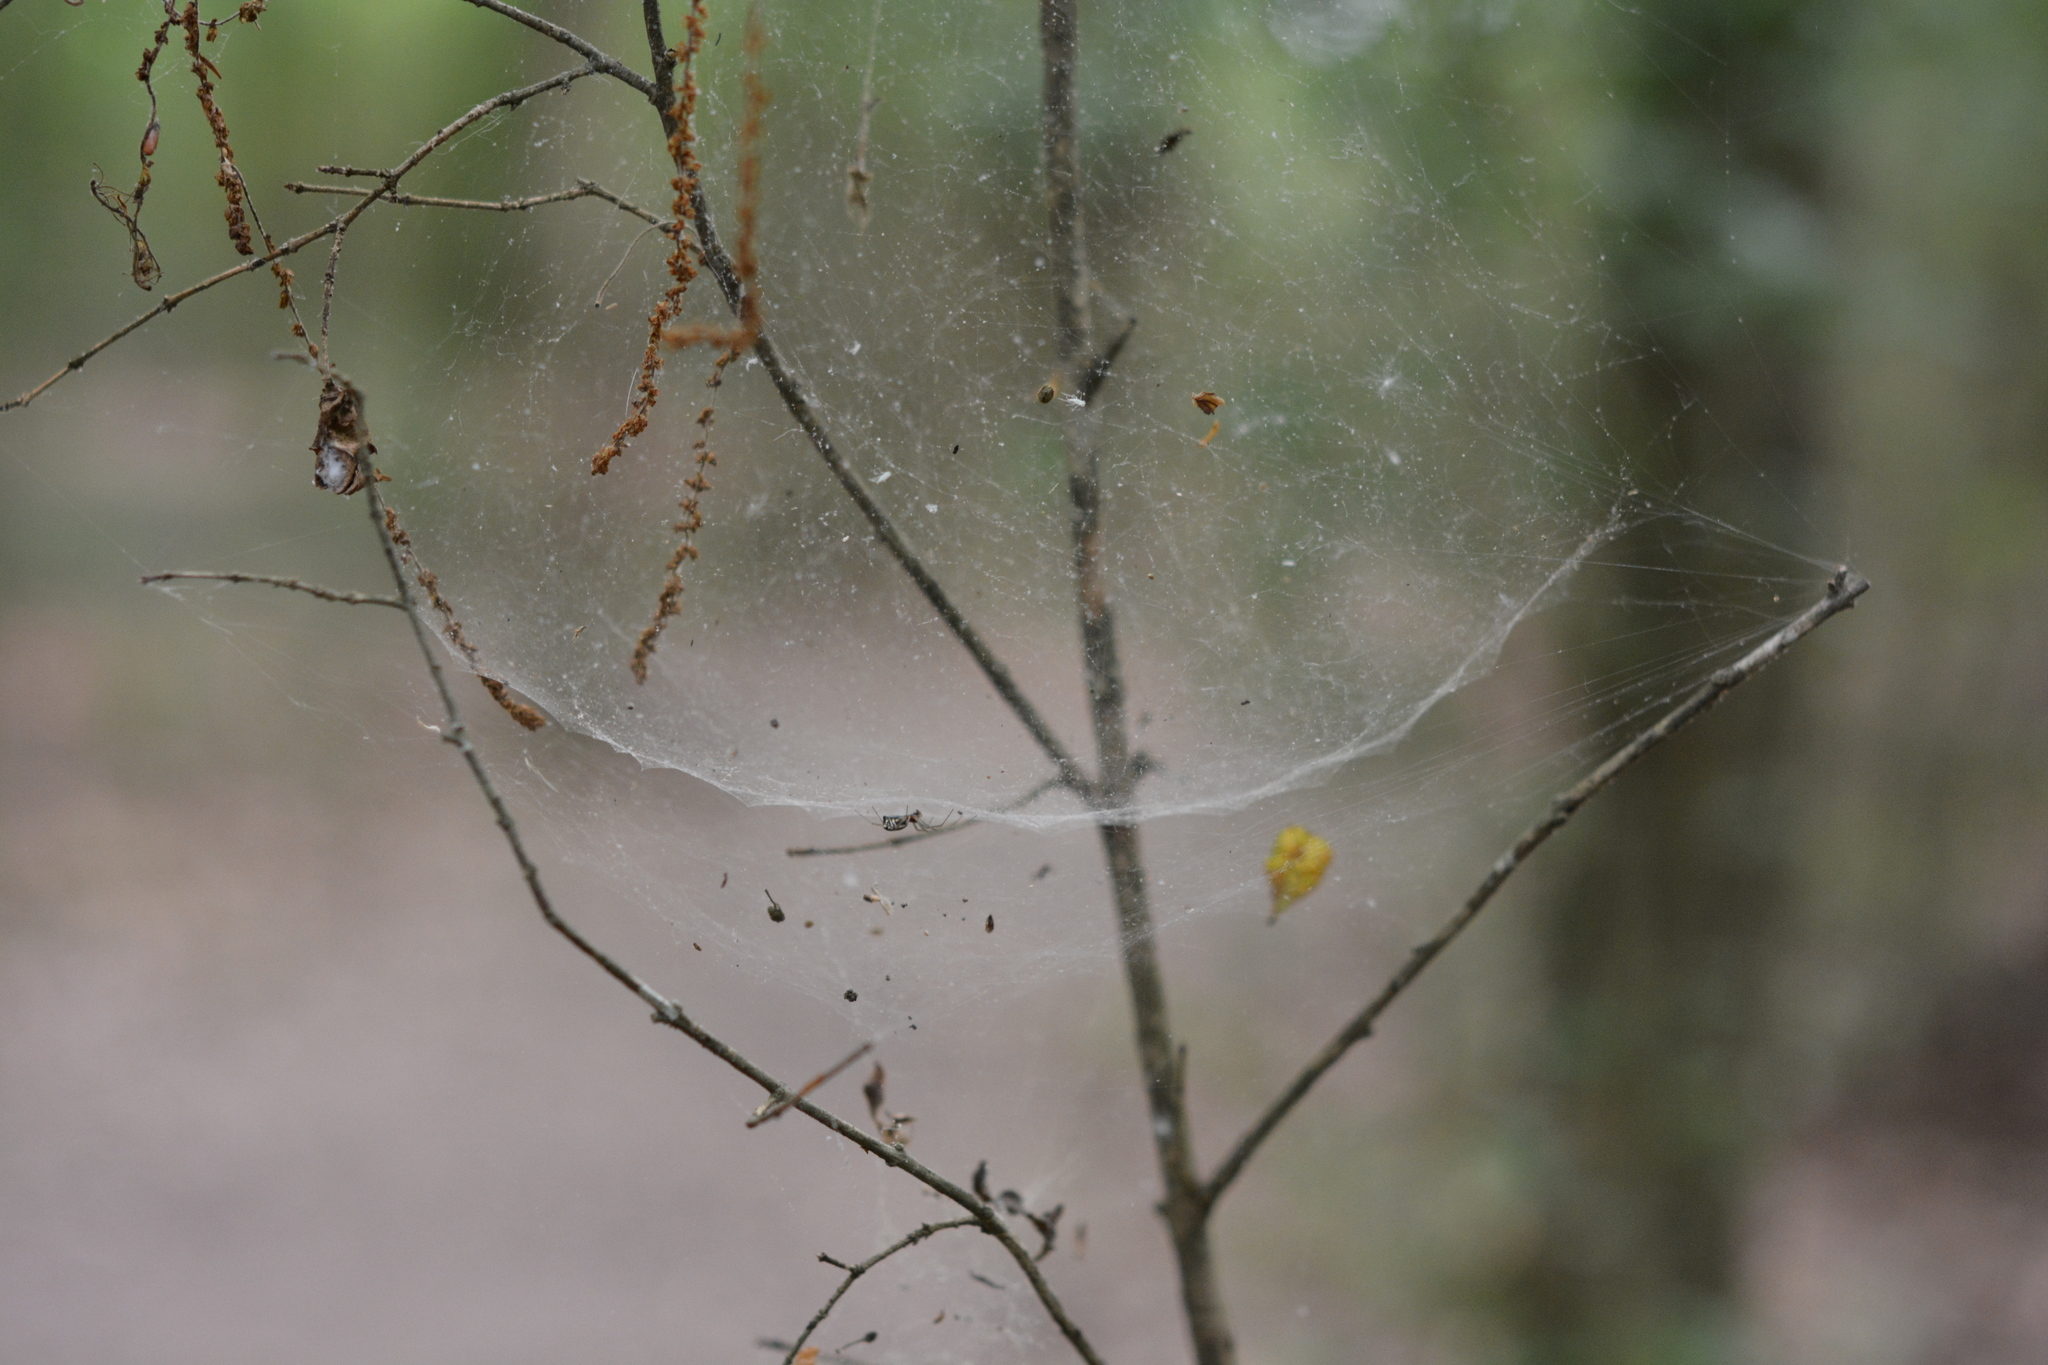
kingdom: Animalia
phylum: Arthropoda
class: Arachnida
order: Araneae
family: Linyphiidae
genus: Frontinella
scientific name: Frontinella pyramitela
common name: Bowl-and-doily spider
